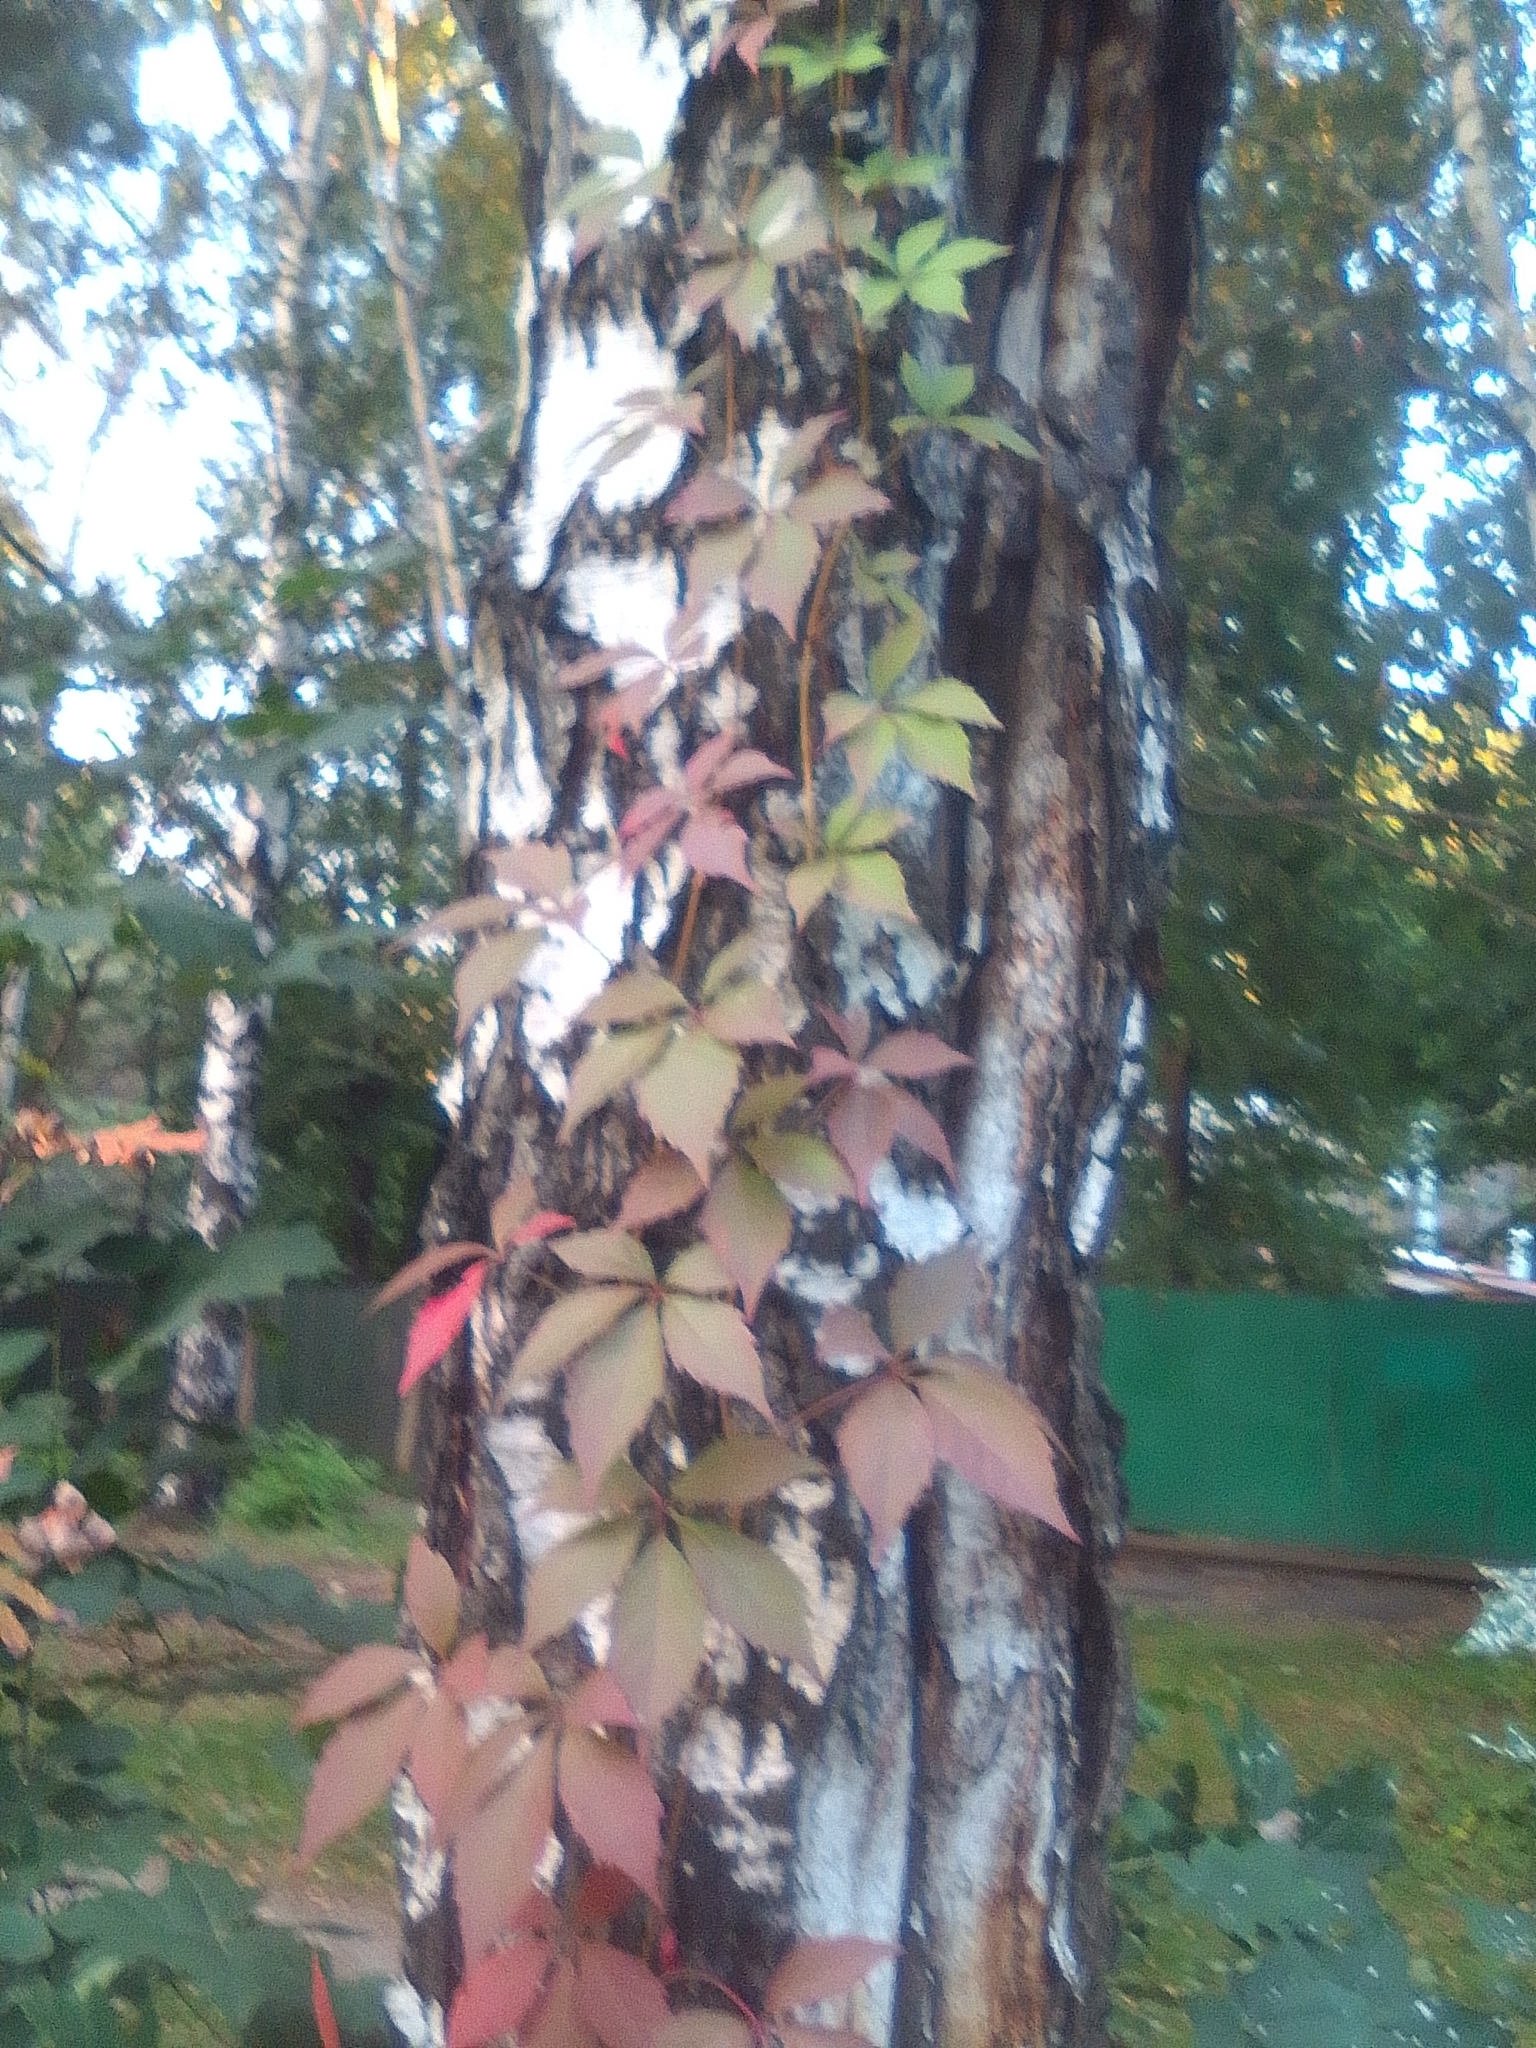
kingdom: Plantae
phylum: Tracheophyta
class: Magnoliopsida
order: Vitales
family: Vitaceae
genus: Parthenocissus
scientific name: Parthenocissus inserta
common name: False virginia-creeper
